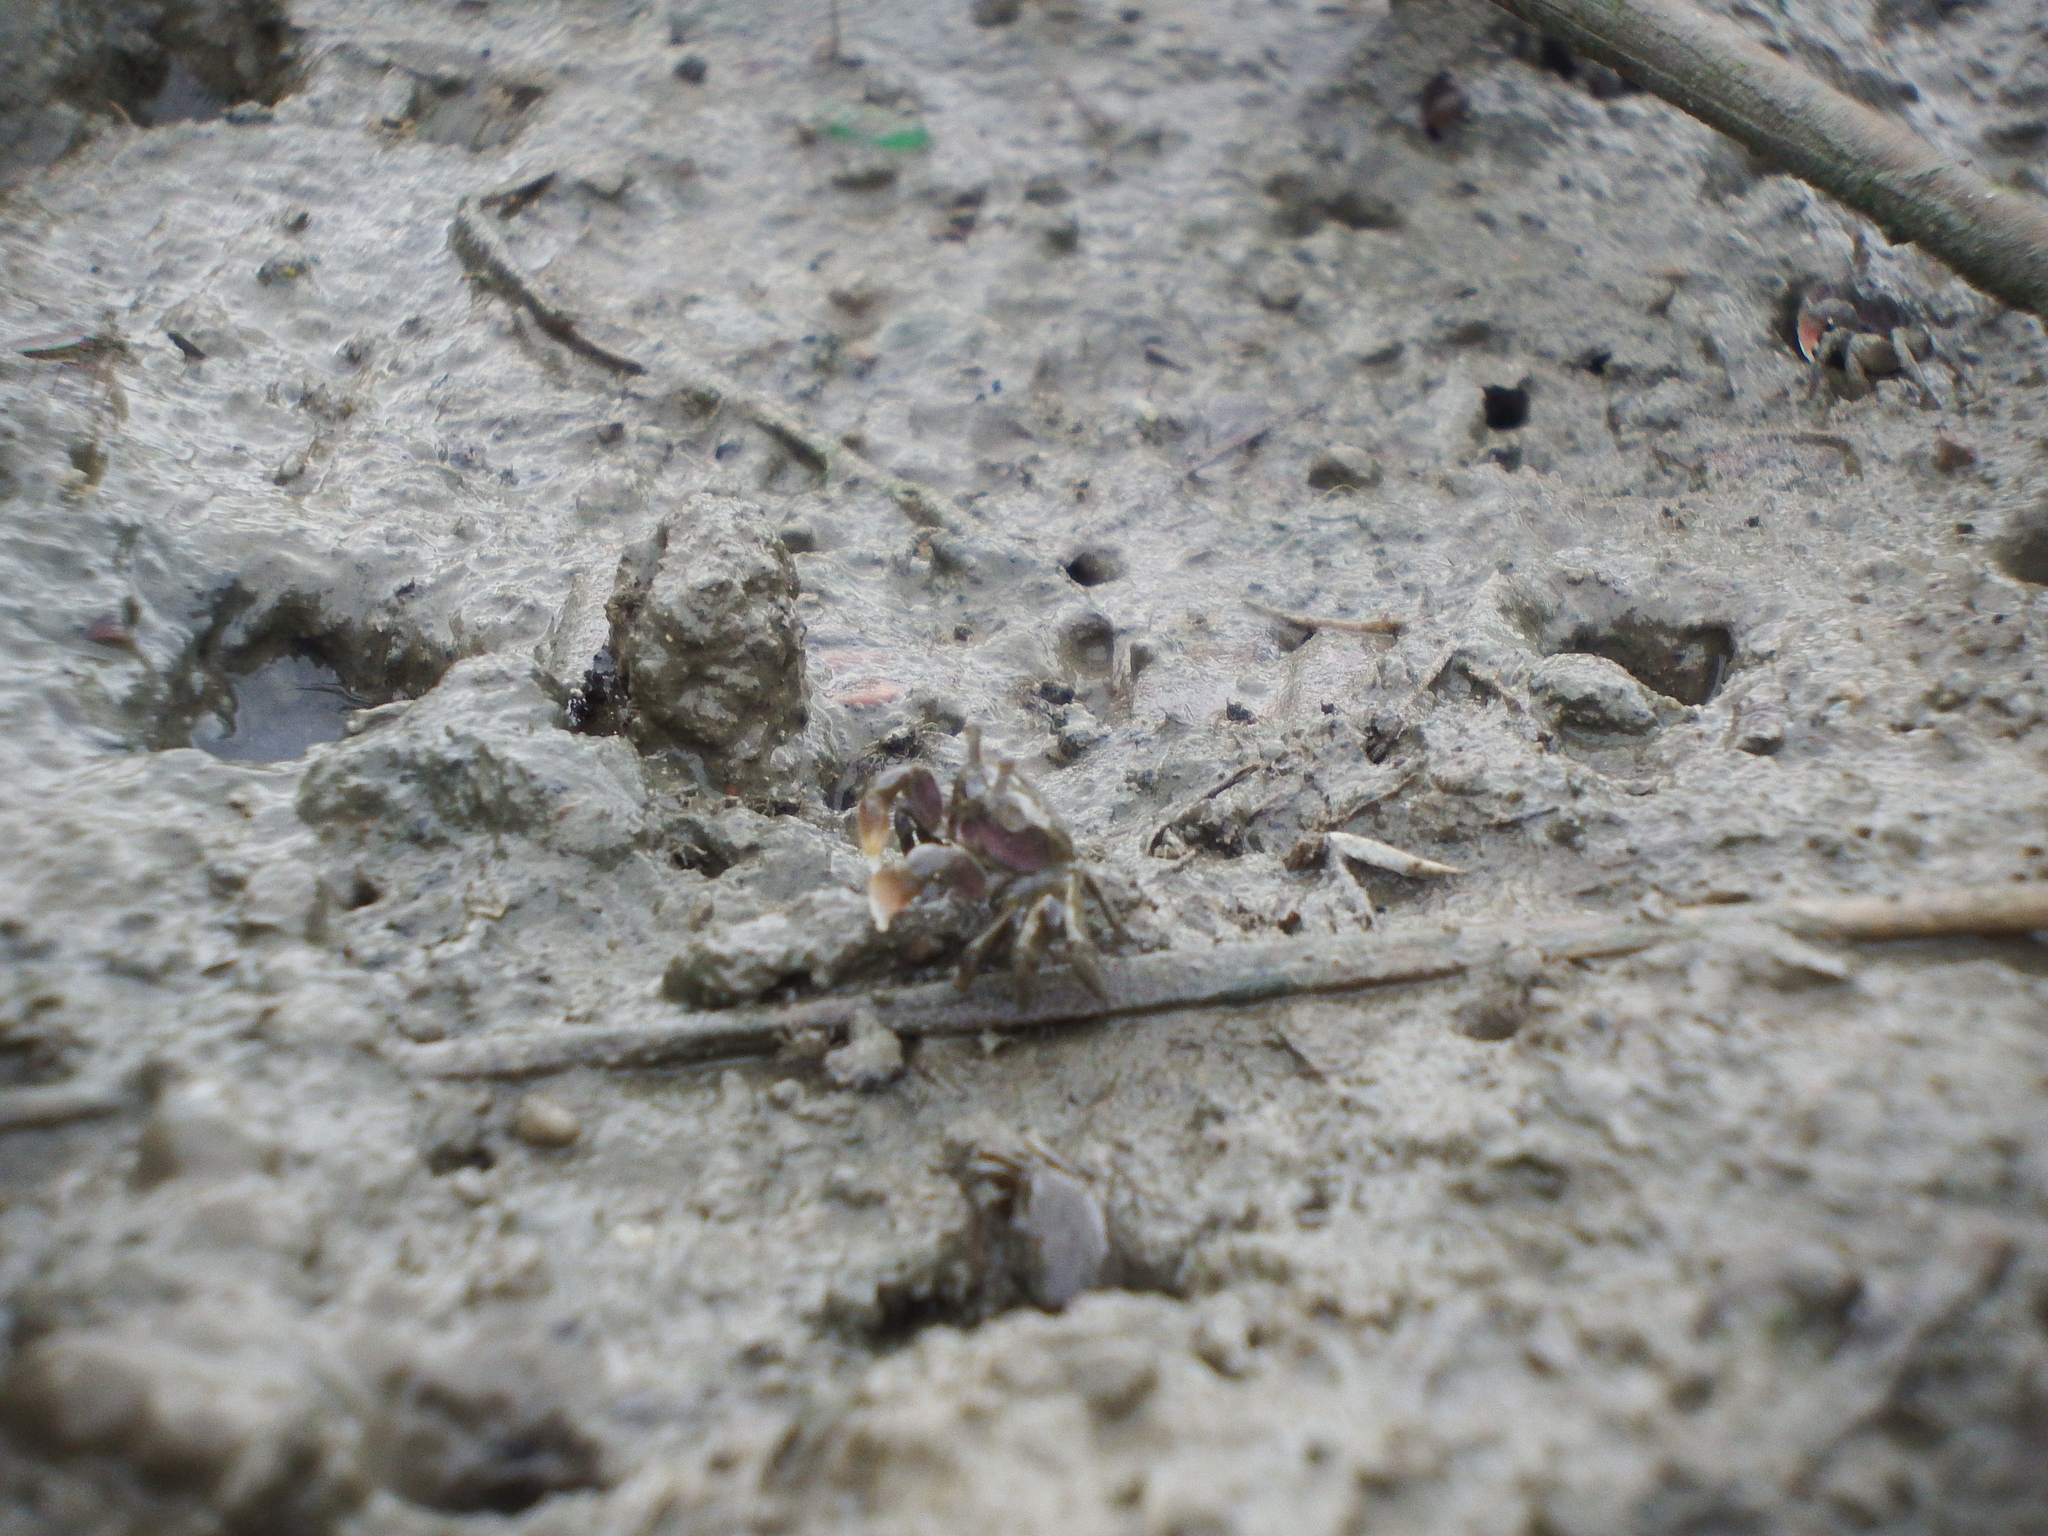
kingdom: Animalia
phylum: Arthropoda
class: Malacostraca
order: Decapoda
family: Dotillidae
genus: Ilyoplax
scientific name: Ilyoplax formosensis
